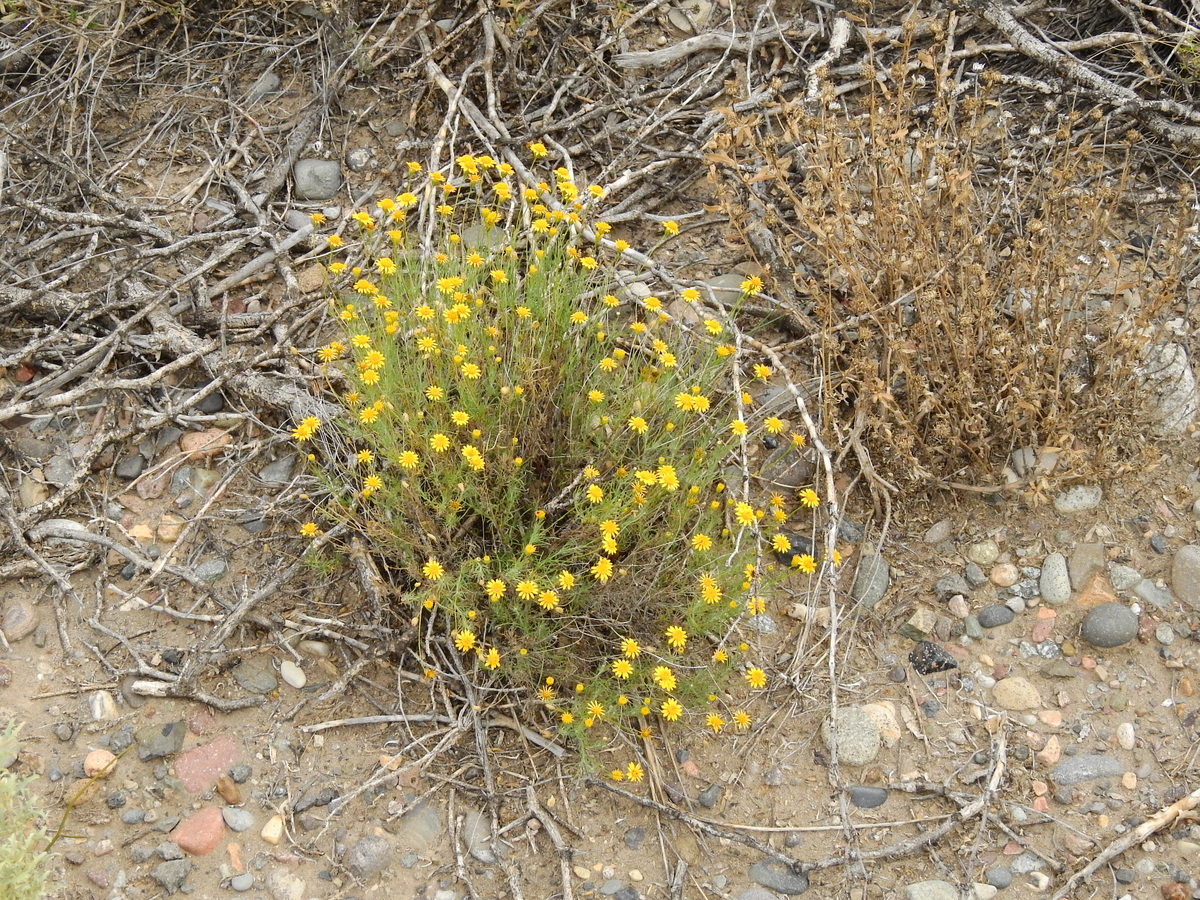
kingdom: Plantae
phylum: Tracheophyta
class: Magnoliopsida
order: Asterales
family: Asteraceae
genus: Thymophylla
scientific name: Thymophylla pentachaeta
